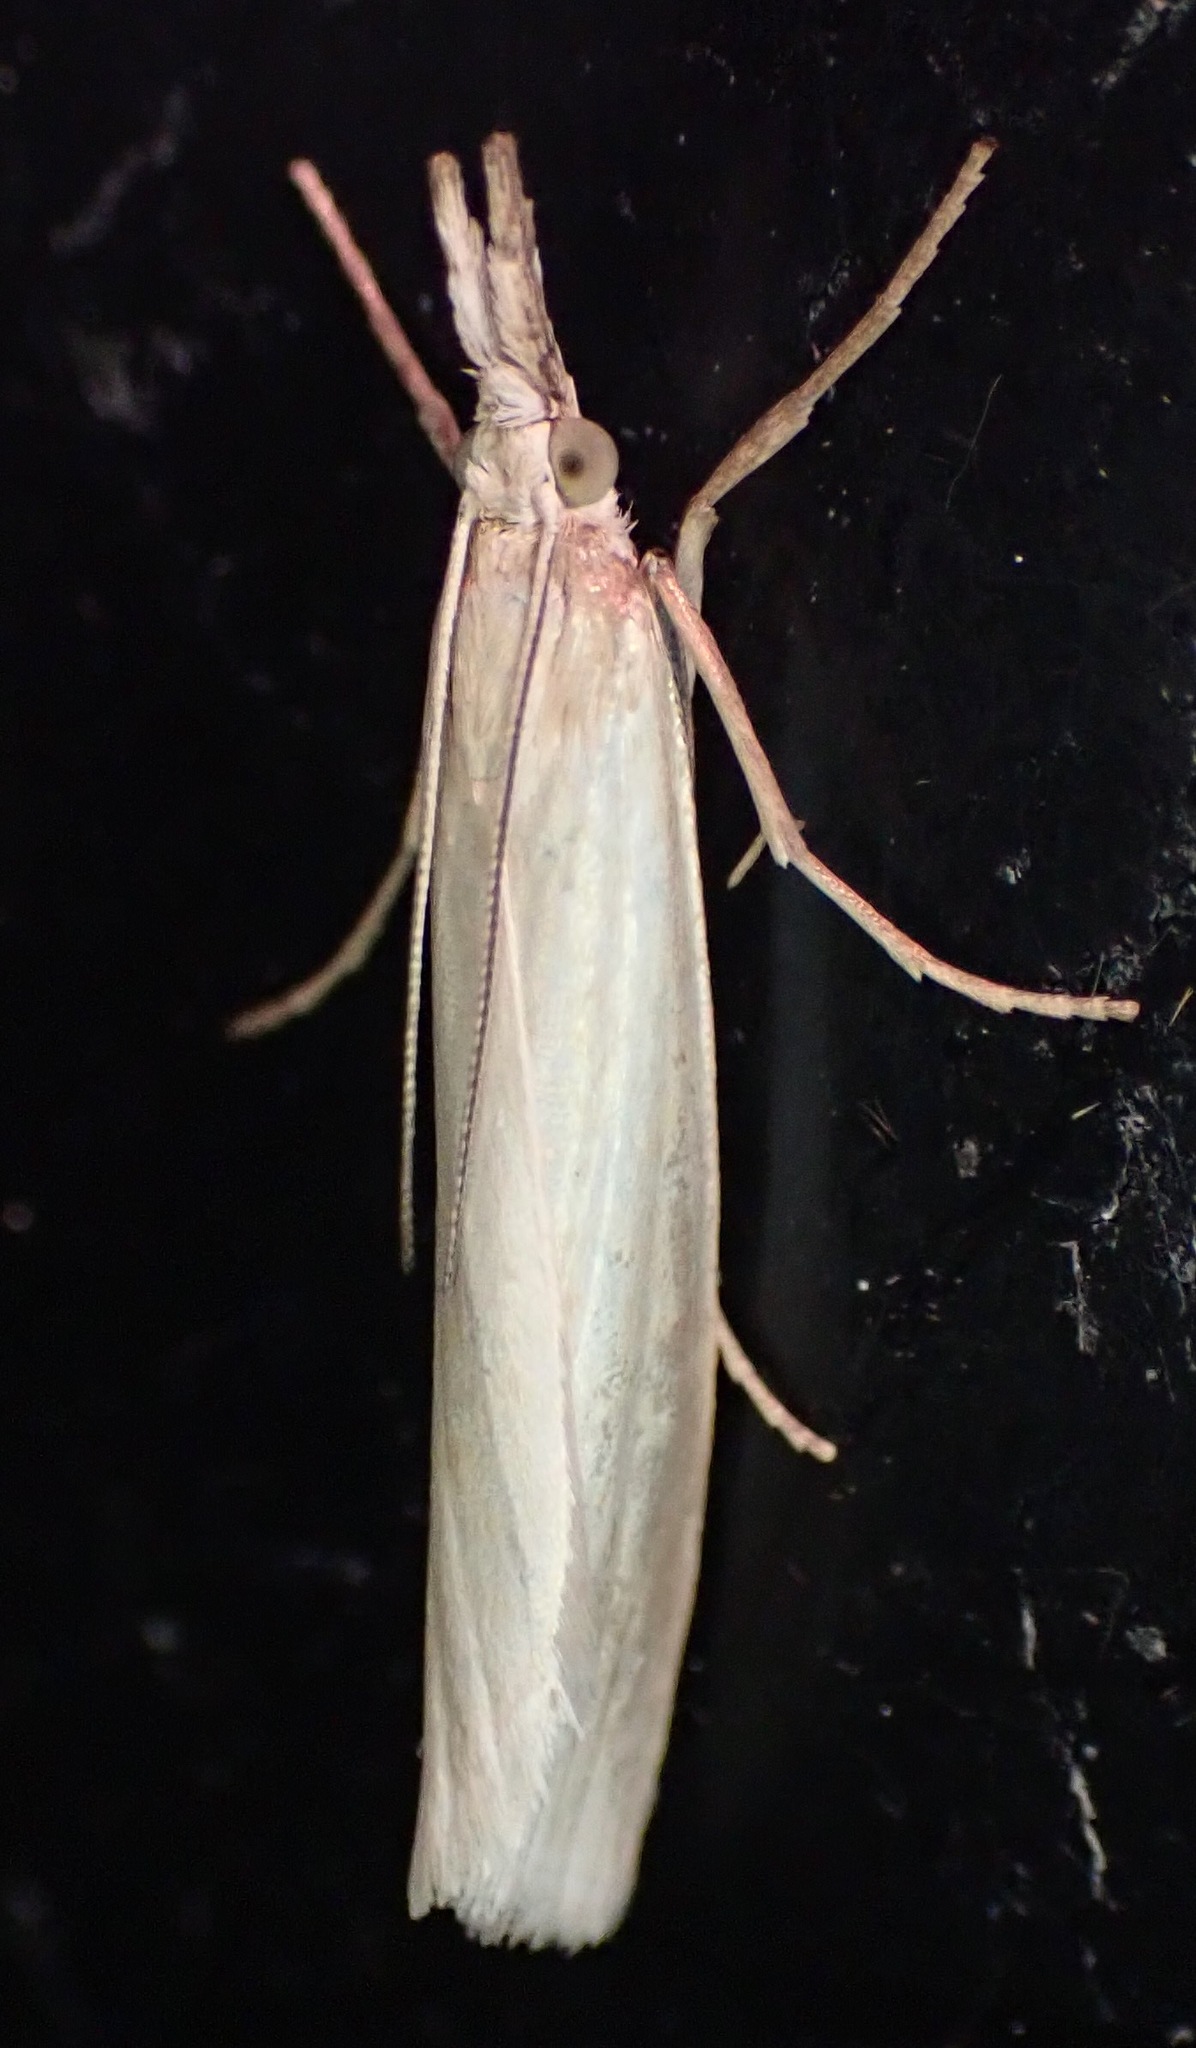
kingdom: Animalia
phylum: Arthropoda
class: Insecta
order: Lepidoptera
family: Crambidae
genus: Crambus
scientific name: Crambus perlellus
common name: Yellow satin veneer
